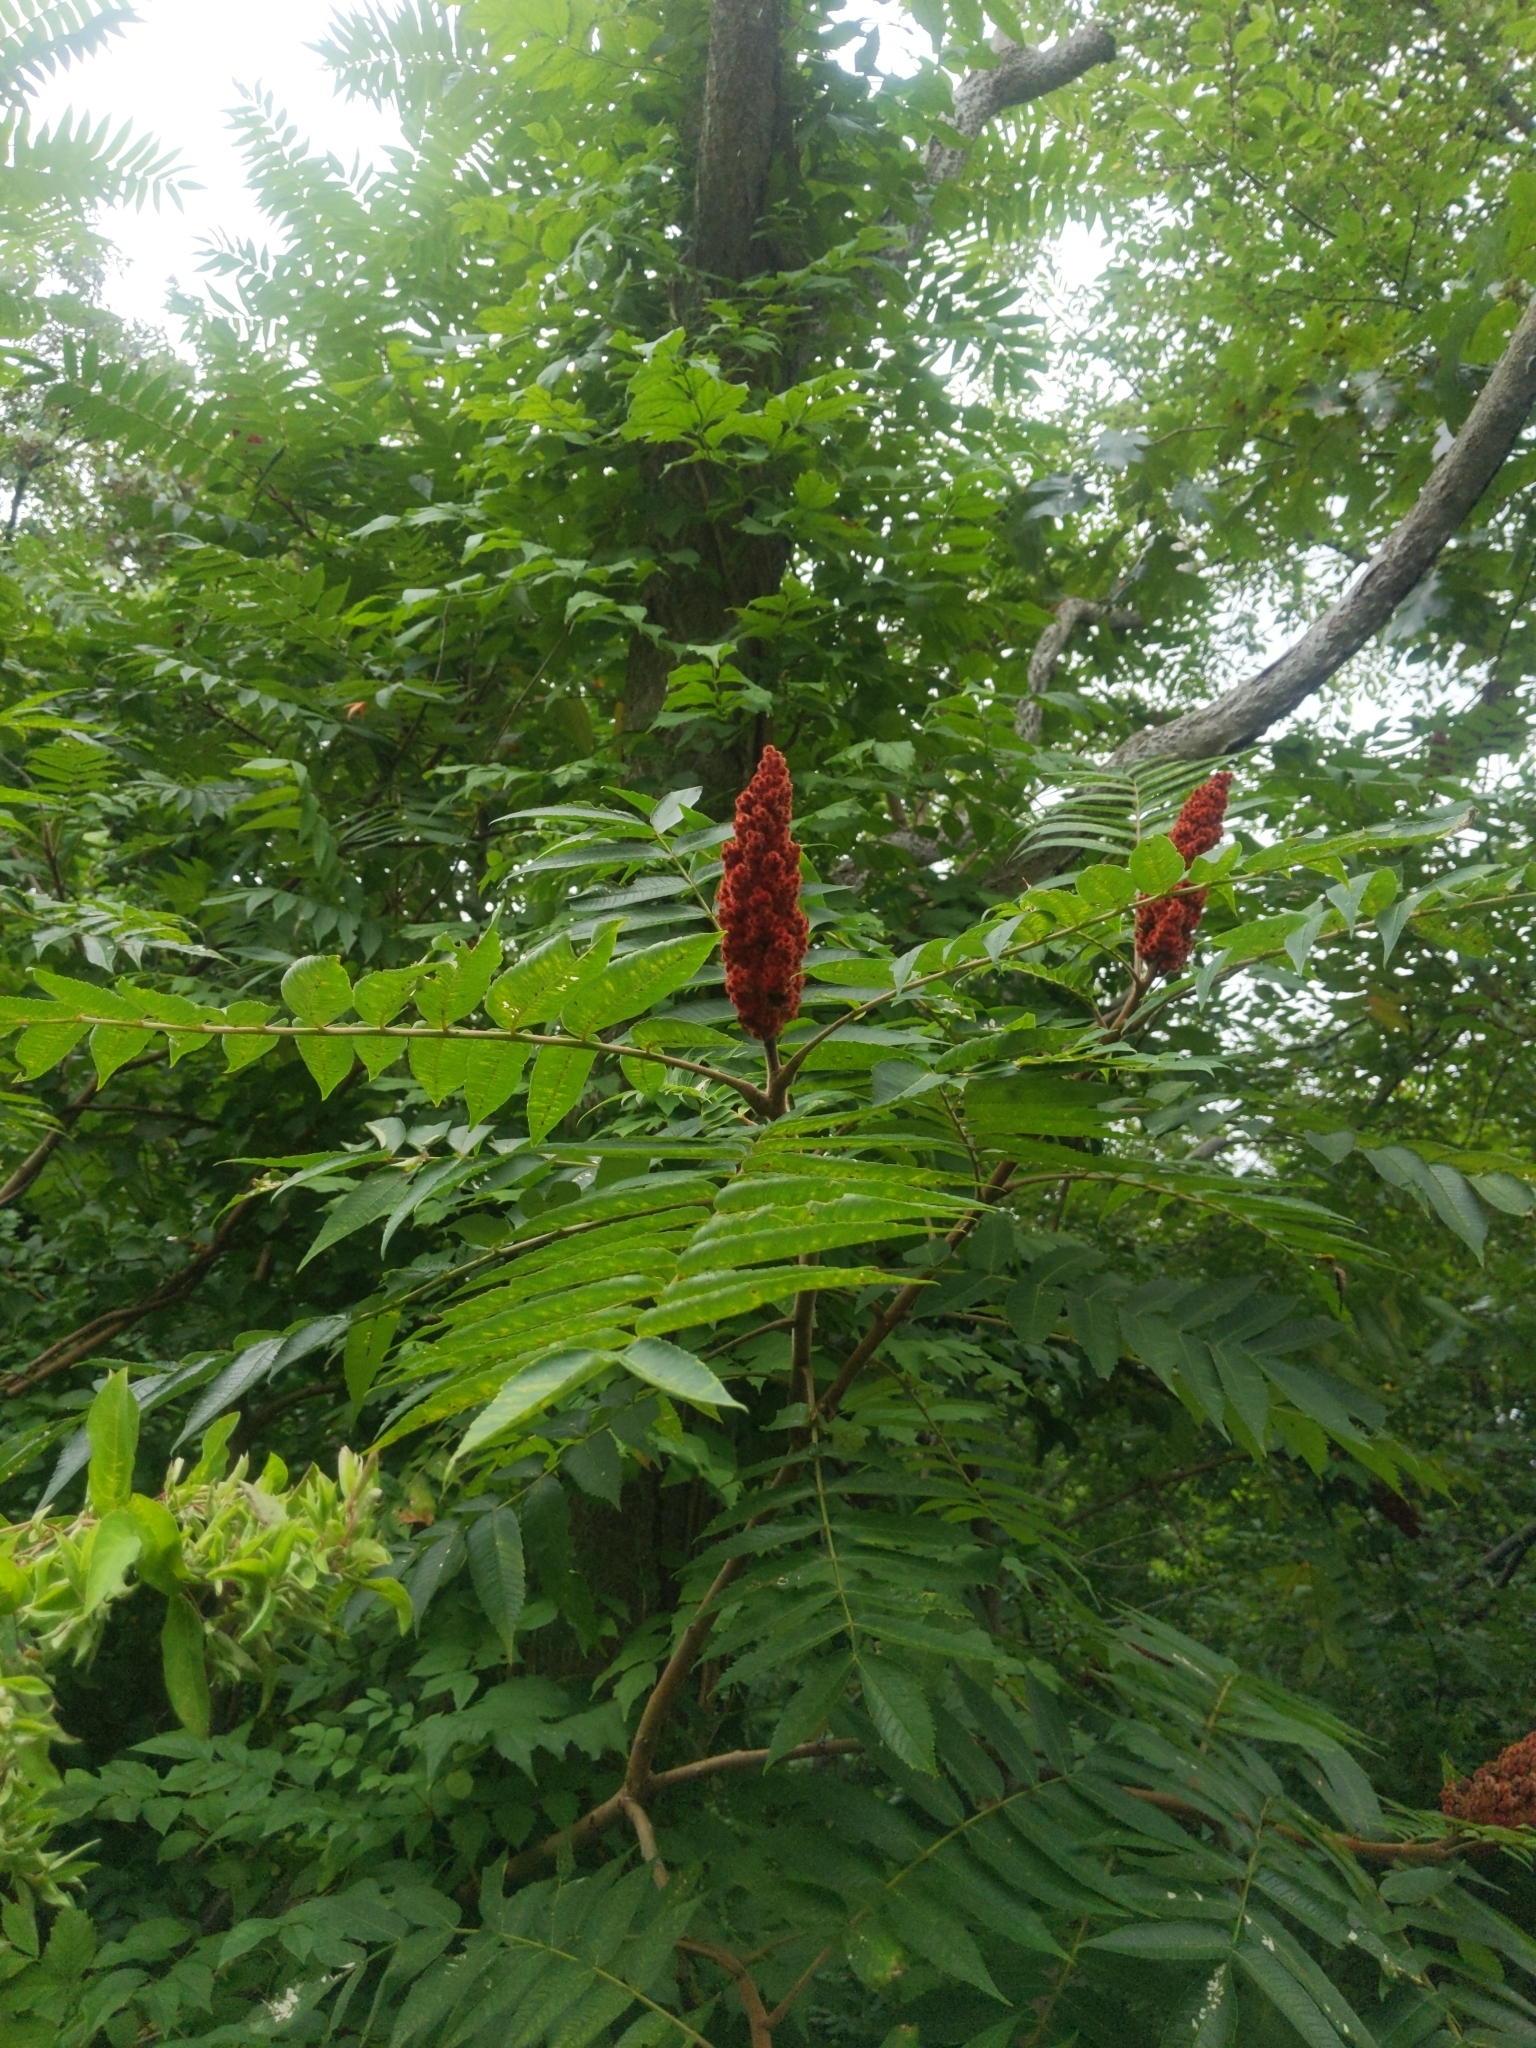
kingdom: Plantae
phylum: Tracheophyta
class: Magnoliopsida
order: Sapindales
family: Anacardiaceae
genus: Rhus
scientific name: Rhus typhina
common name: Staghorn sumac
